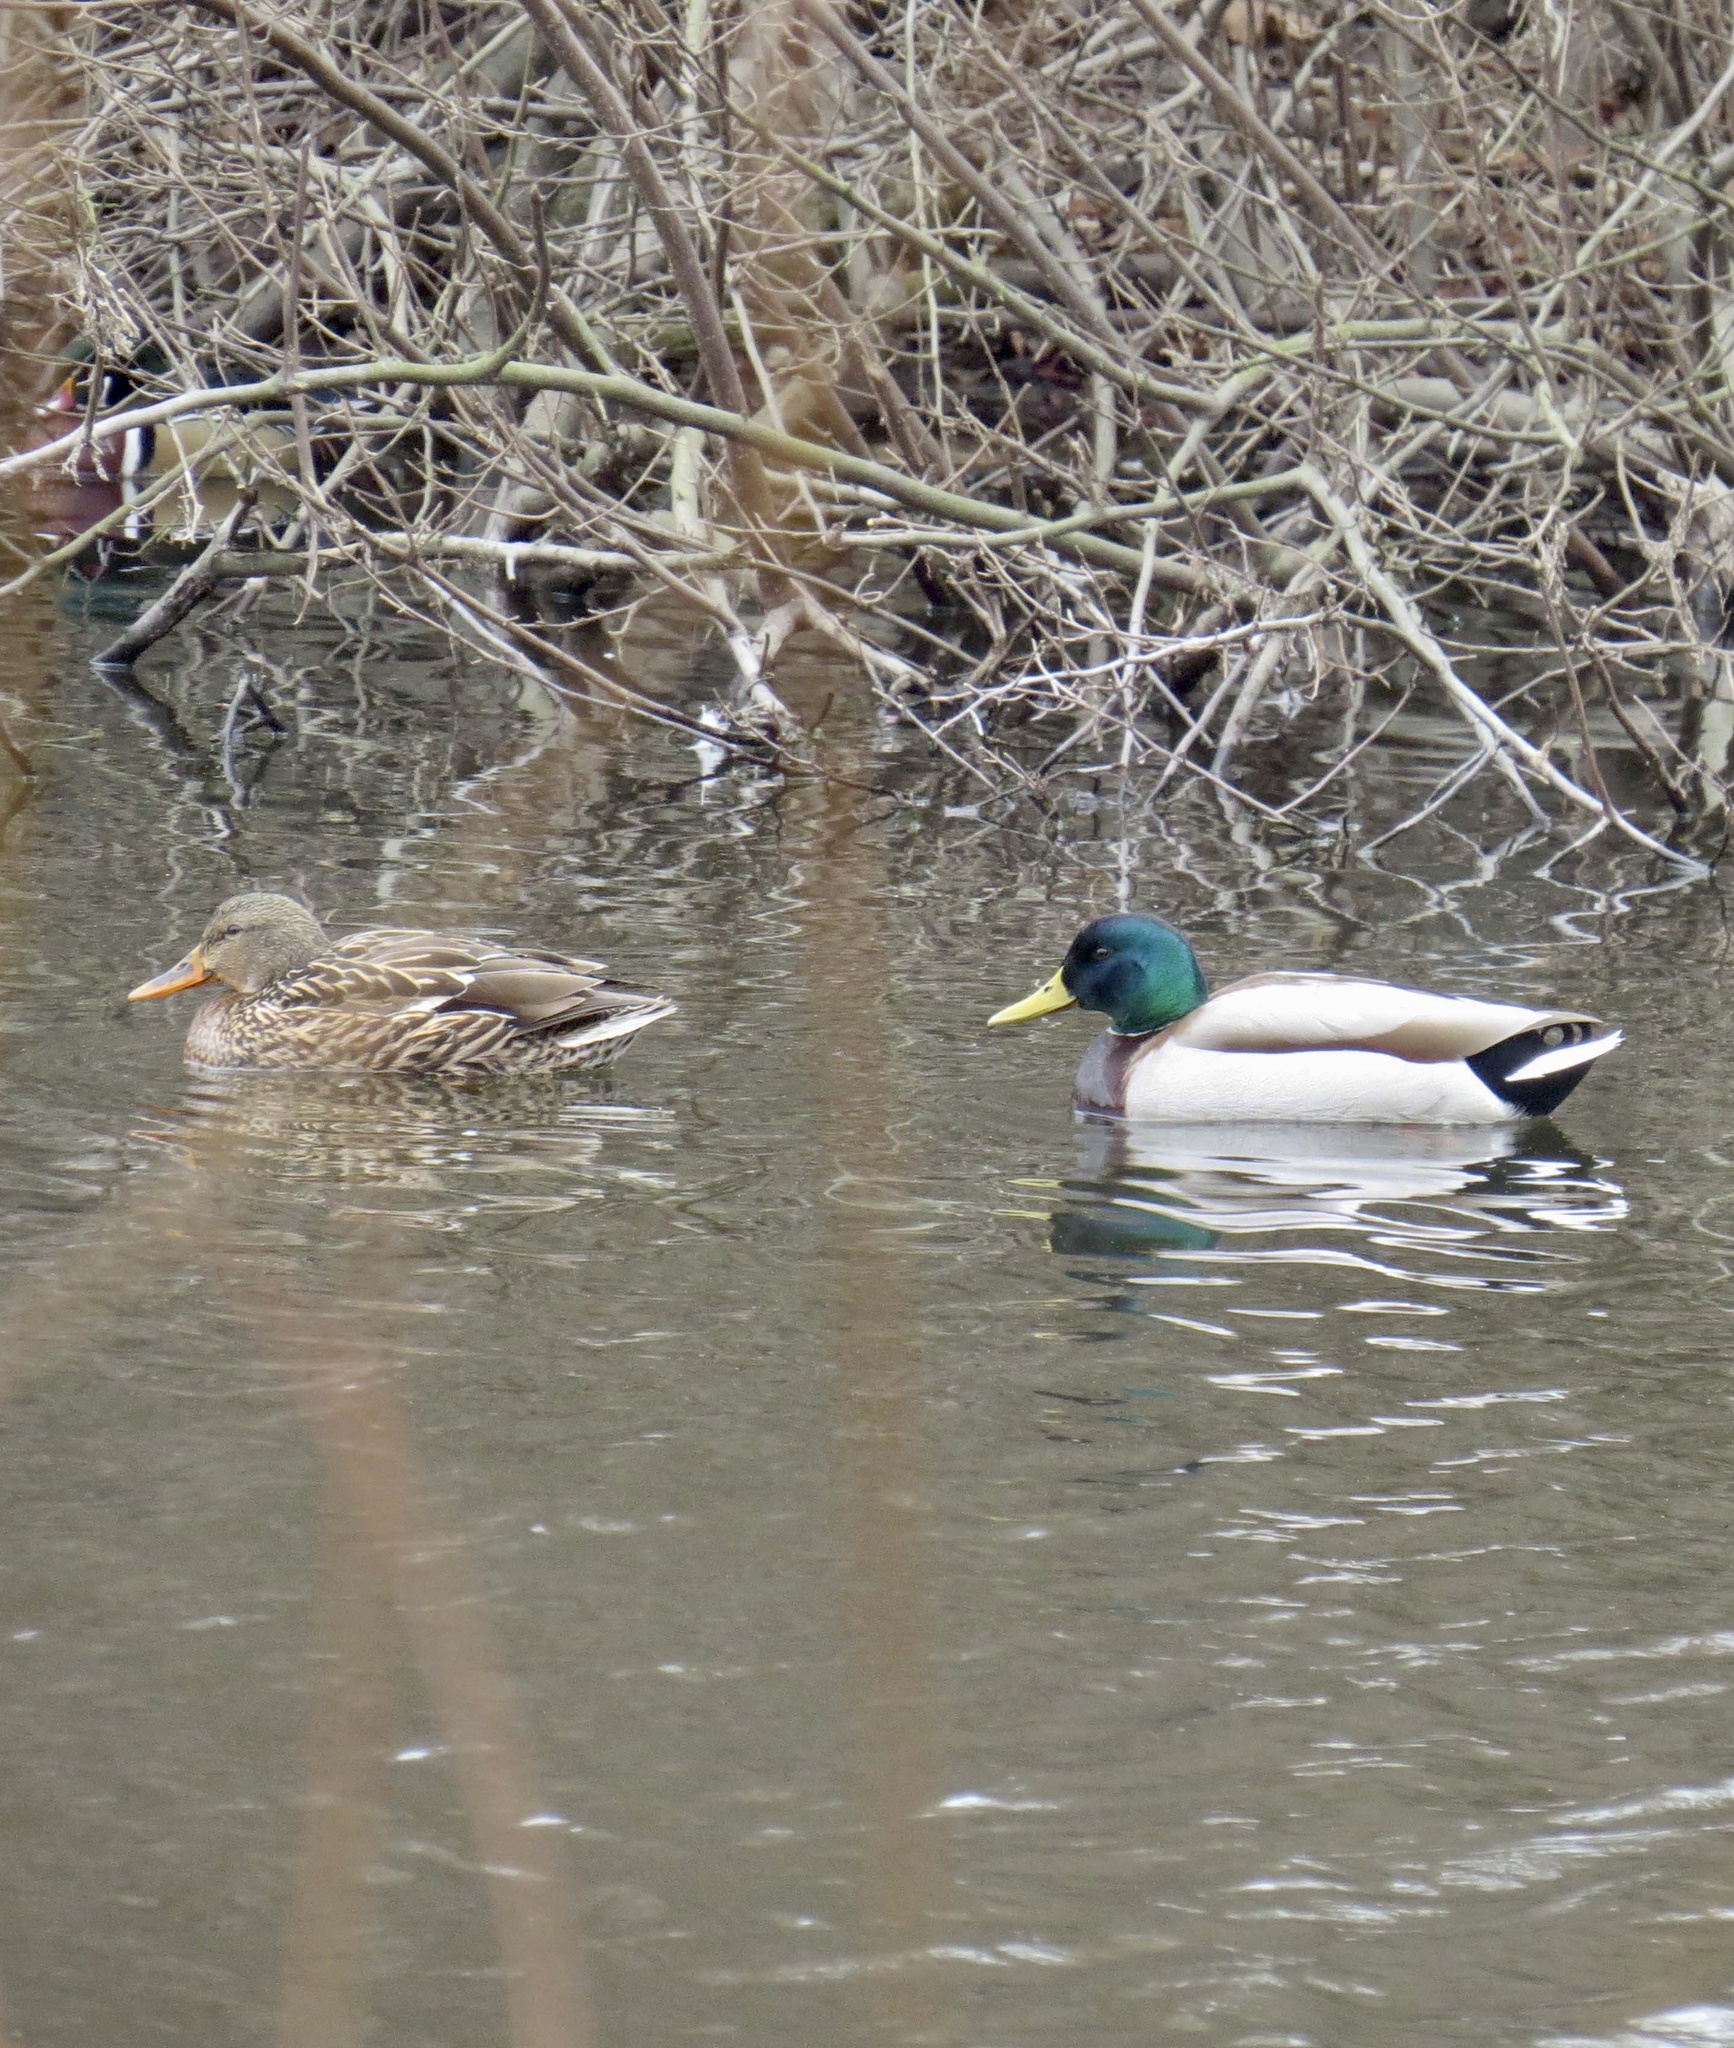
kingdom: Animalia
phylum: Chordata
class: Aves
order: Anseriformes
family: Anatidae
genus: Anas
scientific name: Anas platyrhynchos
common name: Mallard
